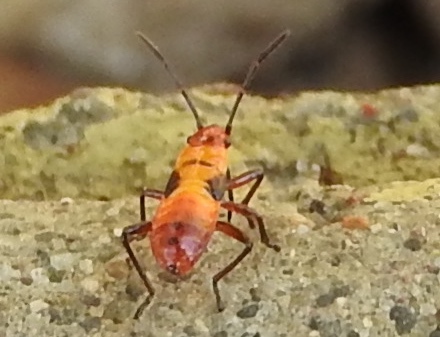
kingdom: Animalia
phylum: Arthropoda
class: Insecta
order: Hemiptera
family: Lygaeidae
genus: Oncopeltus
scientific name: Oncopeltus guttaloides
